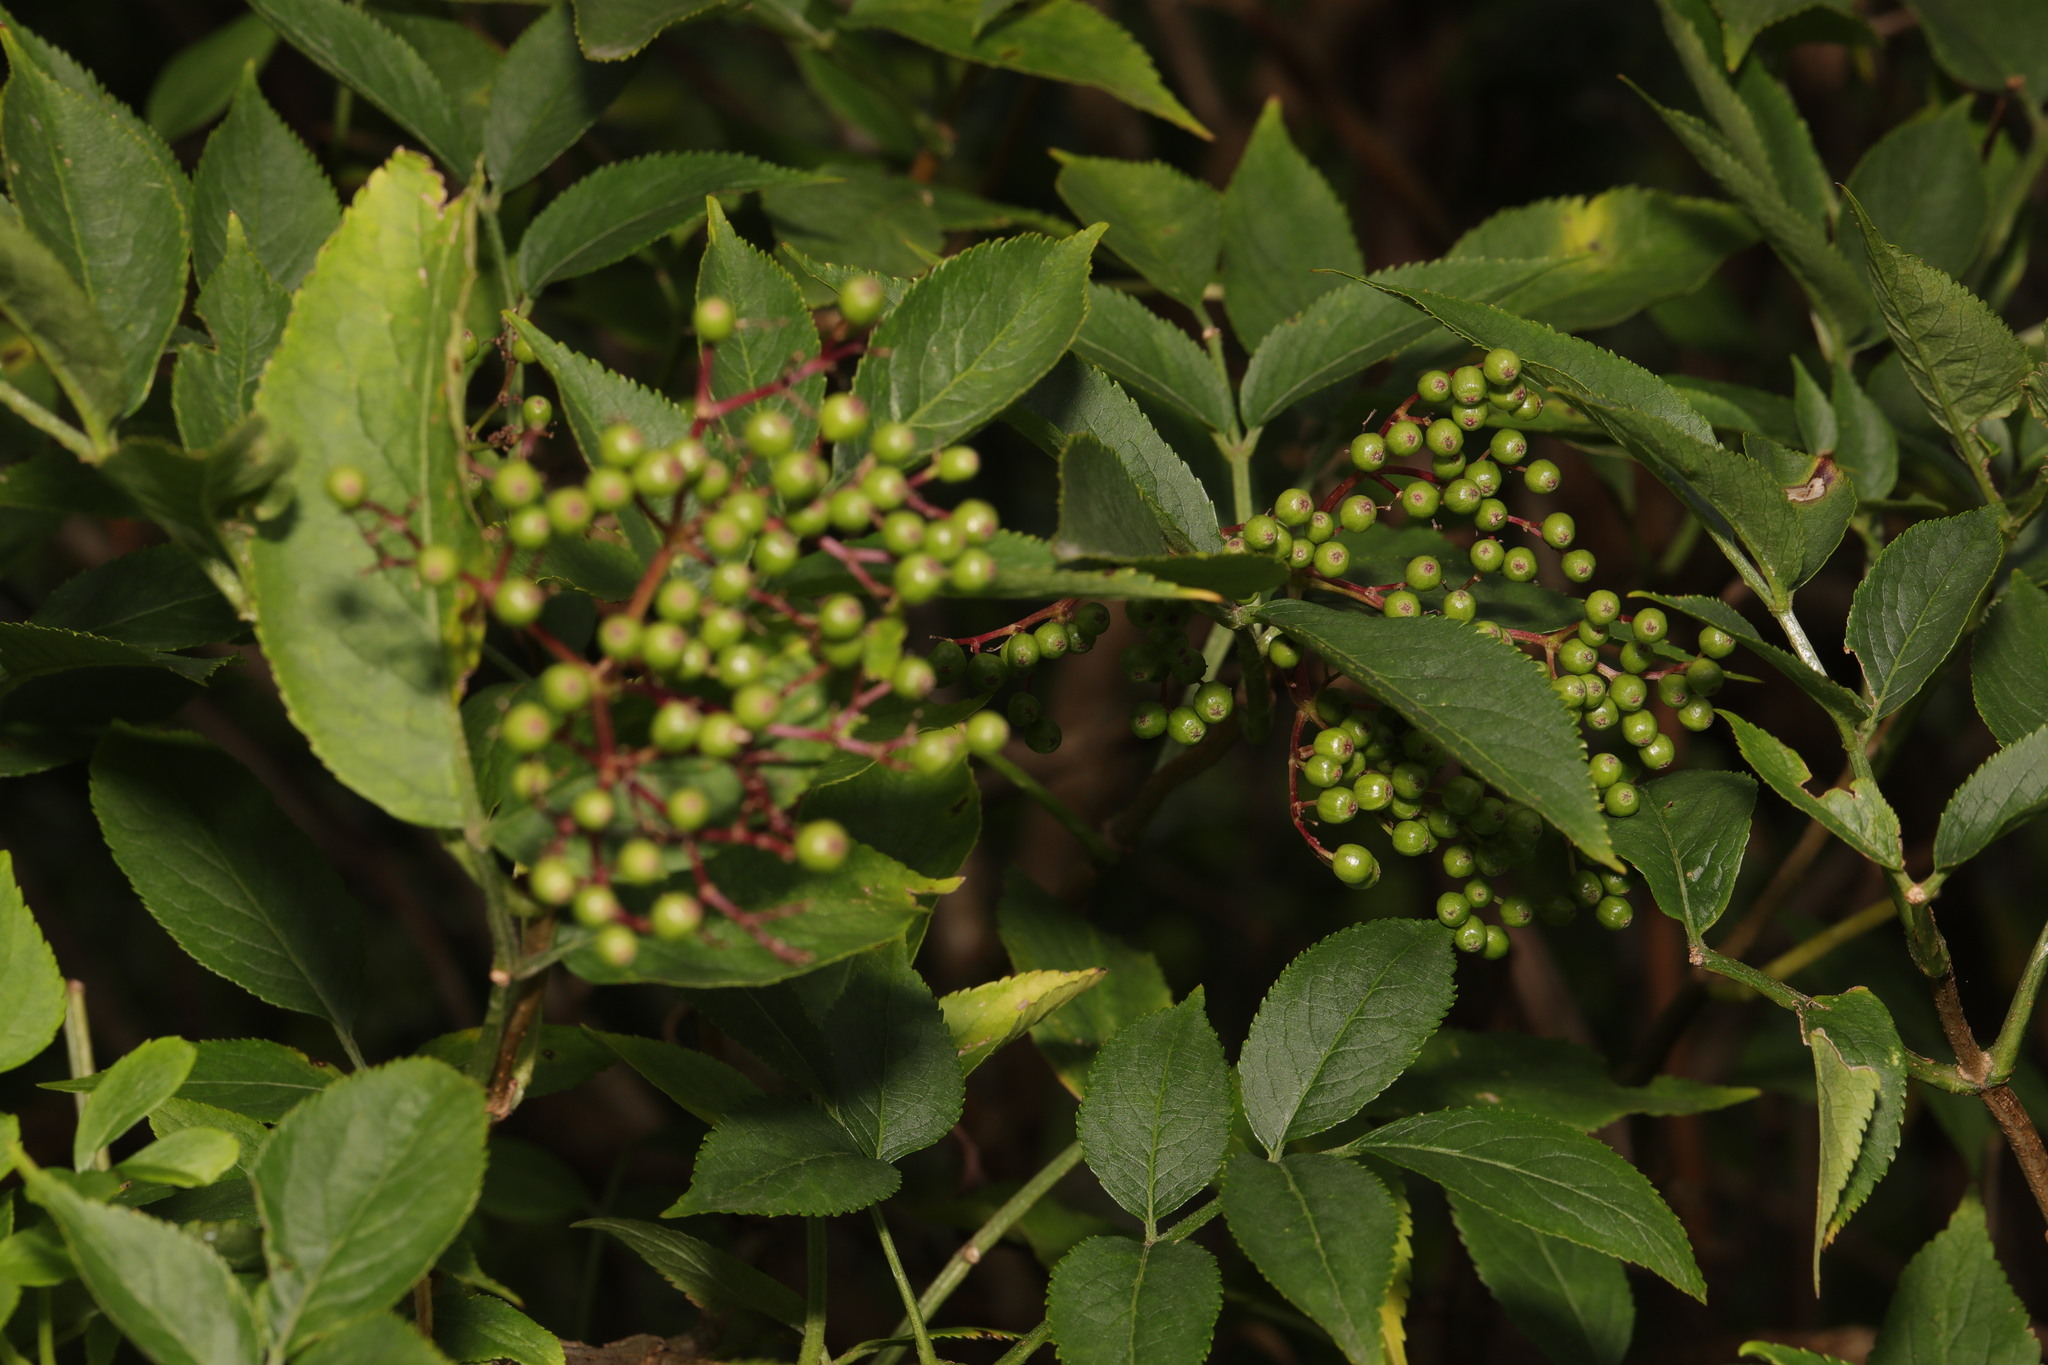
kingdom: Plantae
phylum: Tracheophyta
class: Magnoliopsida
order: Dipsacales
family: Viburnaceae
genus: Sambucus
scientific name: Sambucus nigra
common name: Elder
